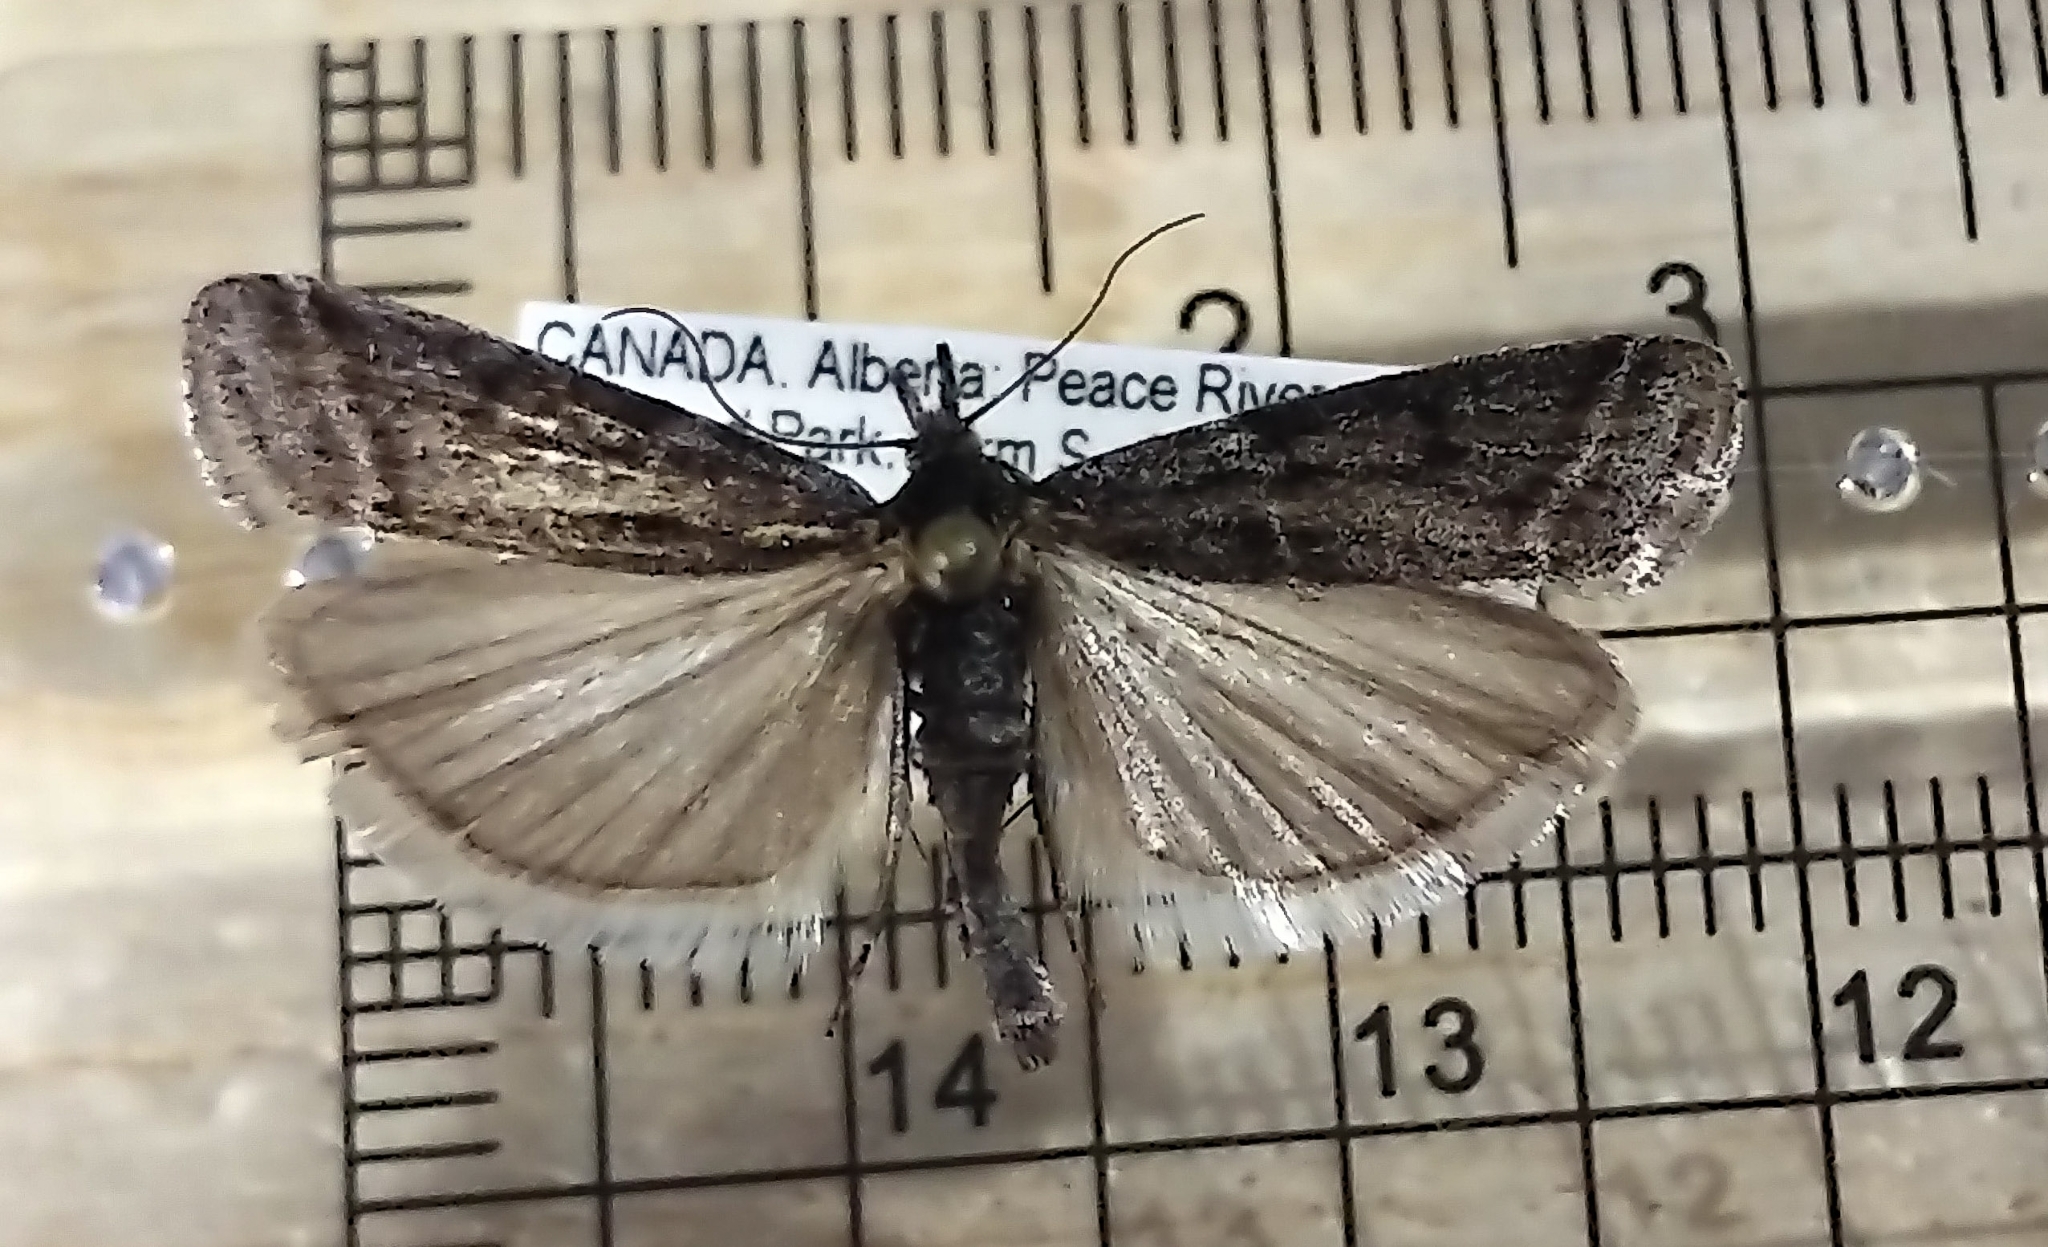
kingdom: Animalia
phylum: Arthropoda
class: Insecta
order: Lepidoptera
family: Pyralidae
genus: Sarata
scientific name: Sarata caudellella
